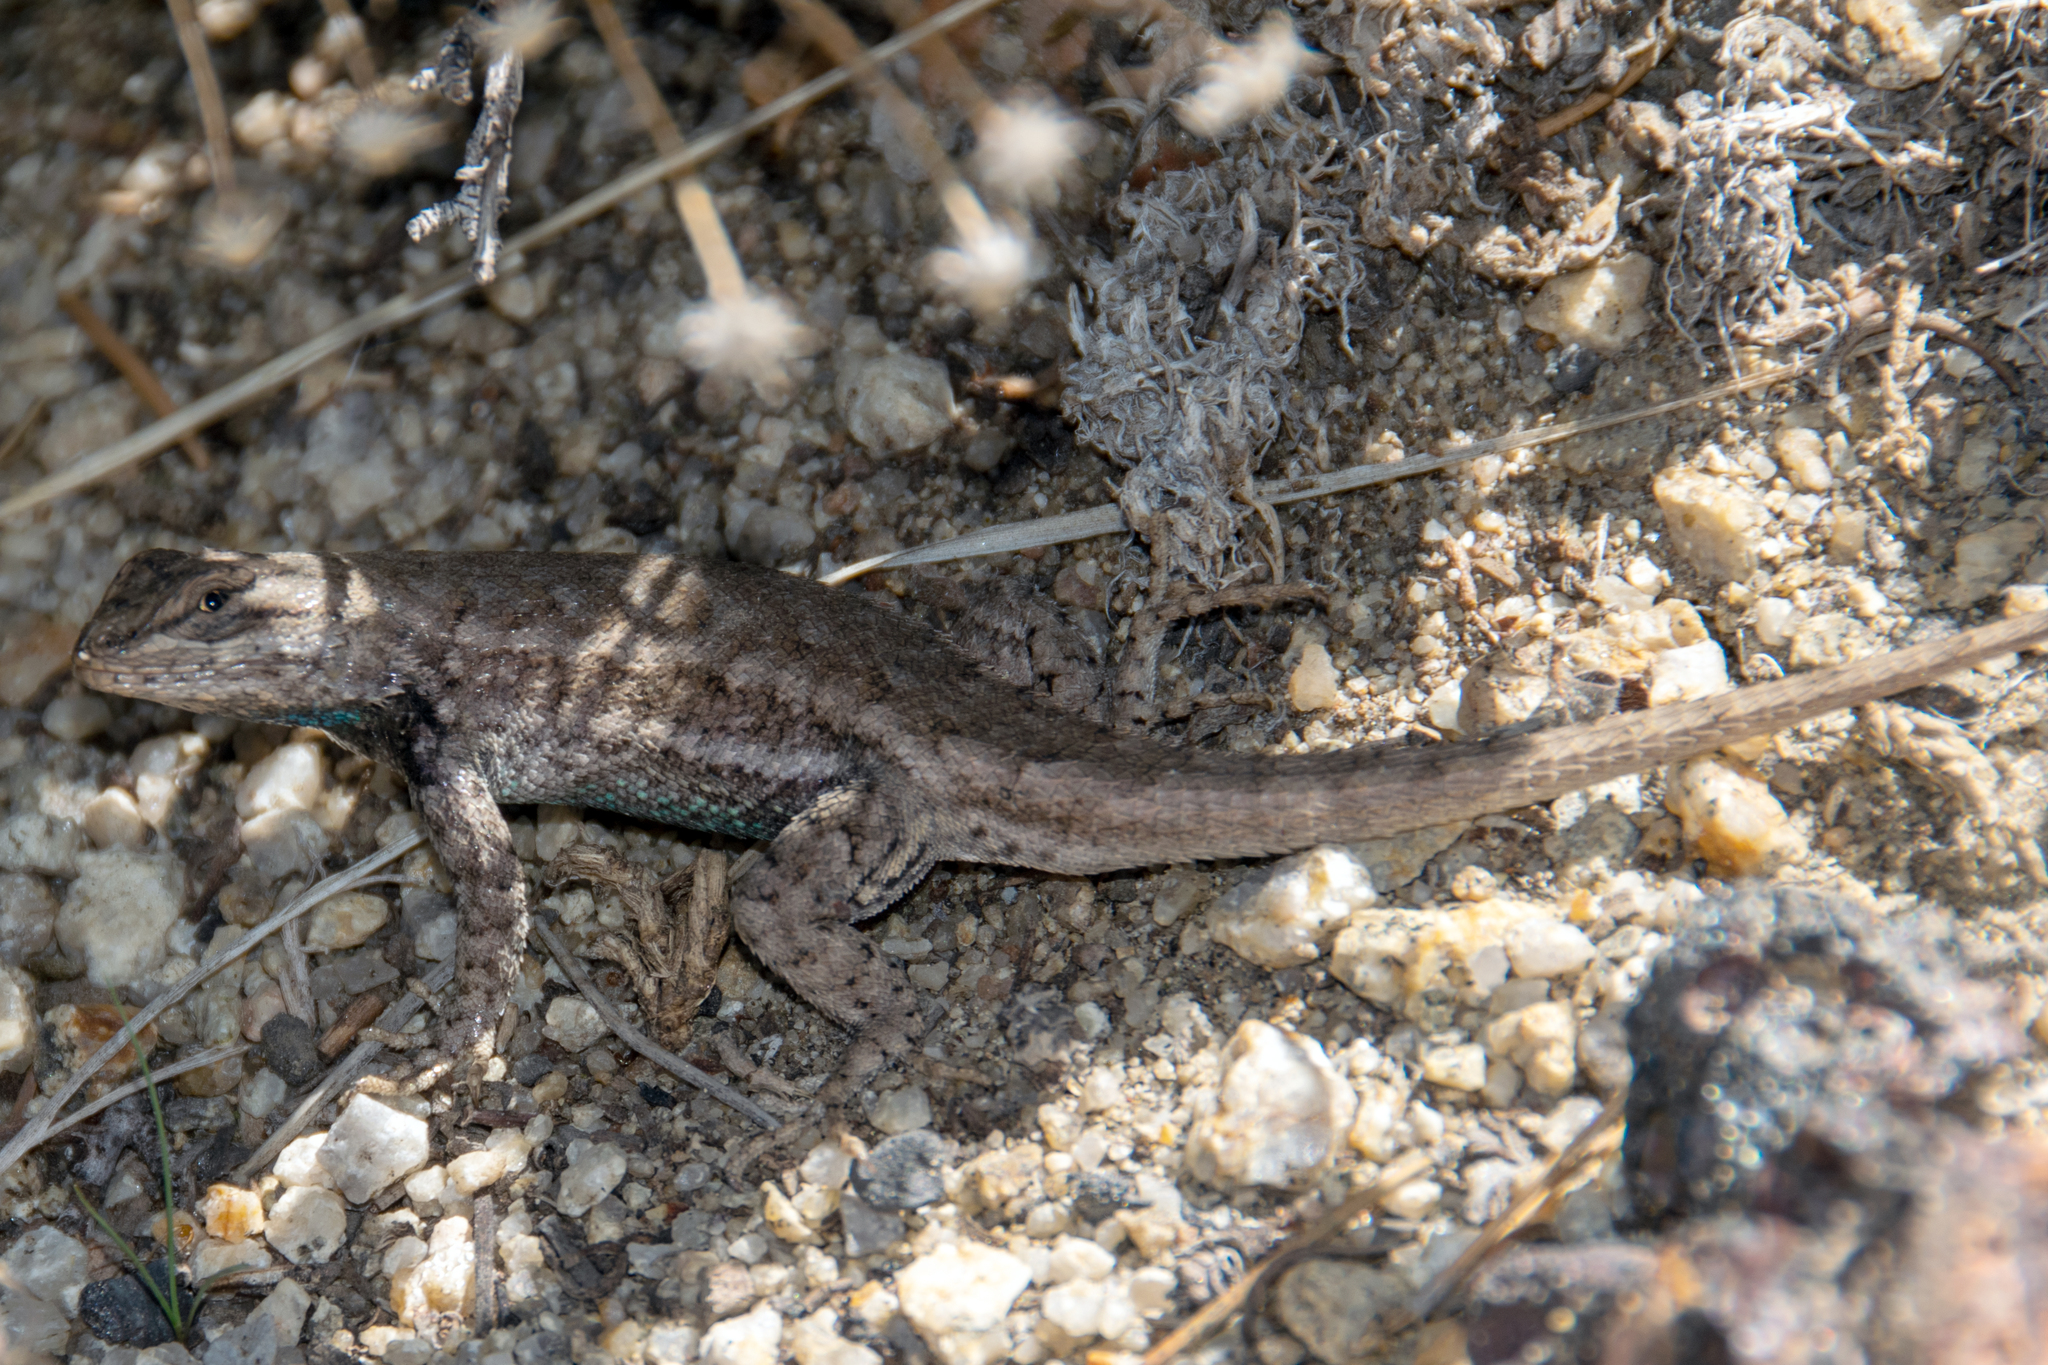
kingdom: Animalia
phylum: Chordata
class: Squamata
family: Phrynosomatidae
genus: Sceloporus
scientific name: Sceloporus tristichus
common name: Plateau fence lizard
